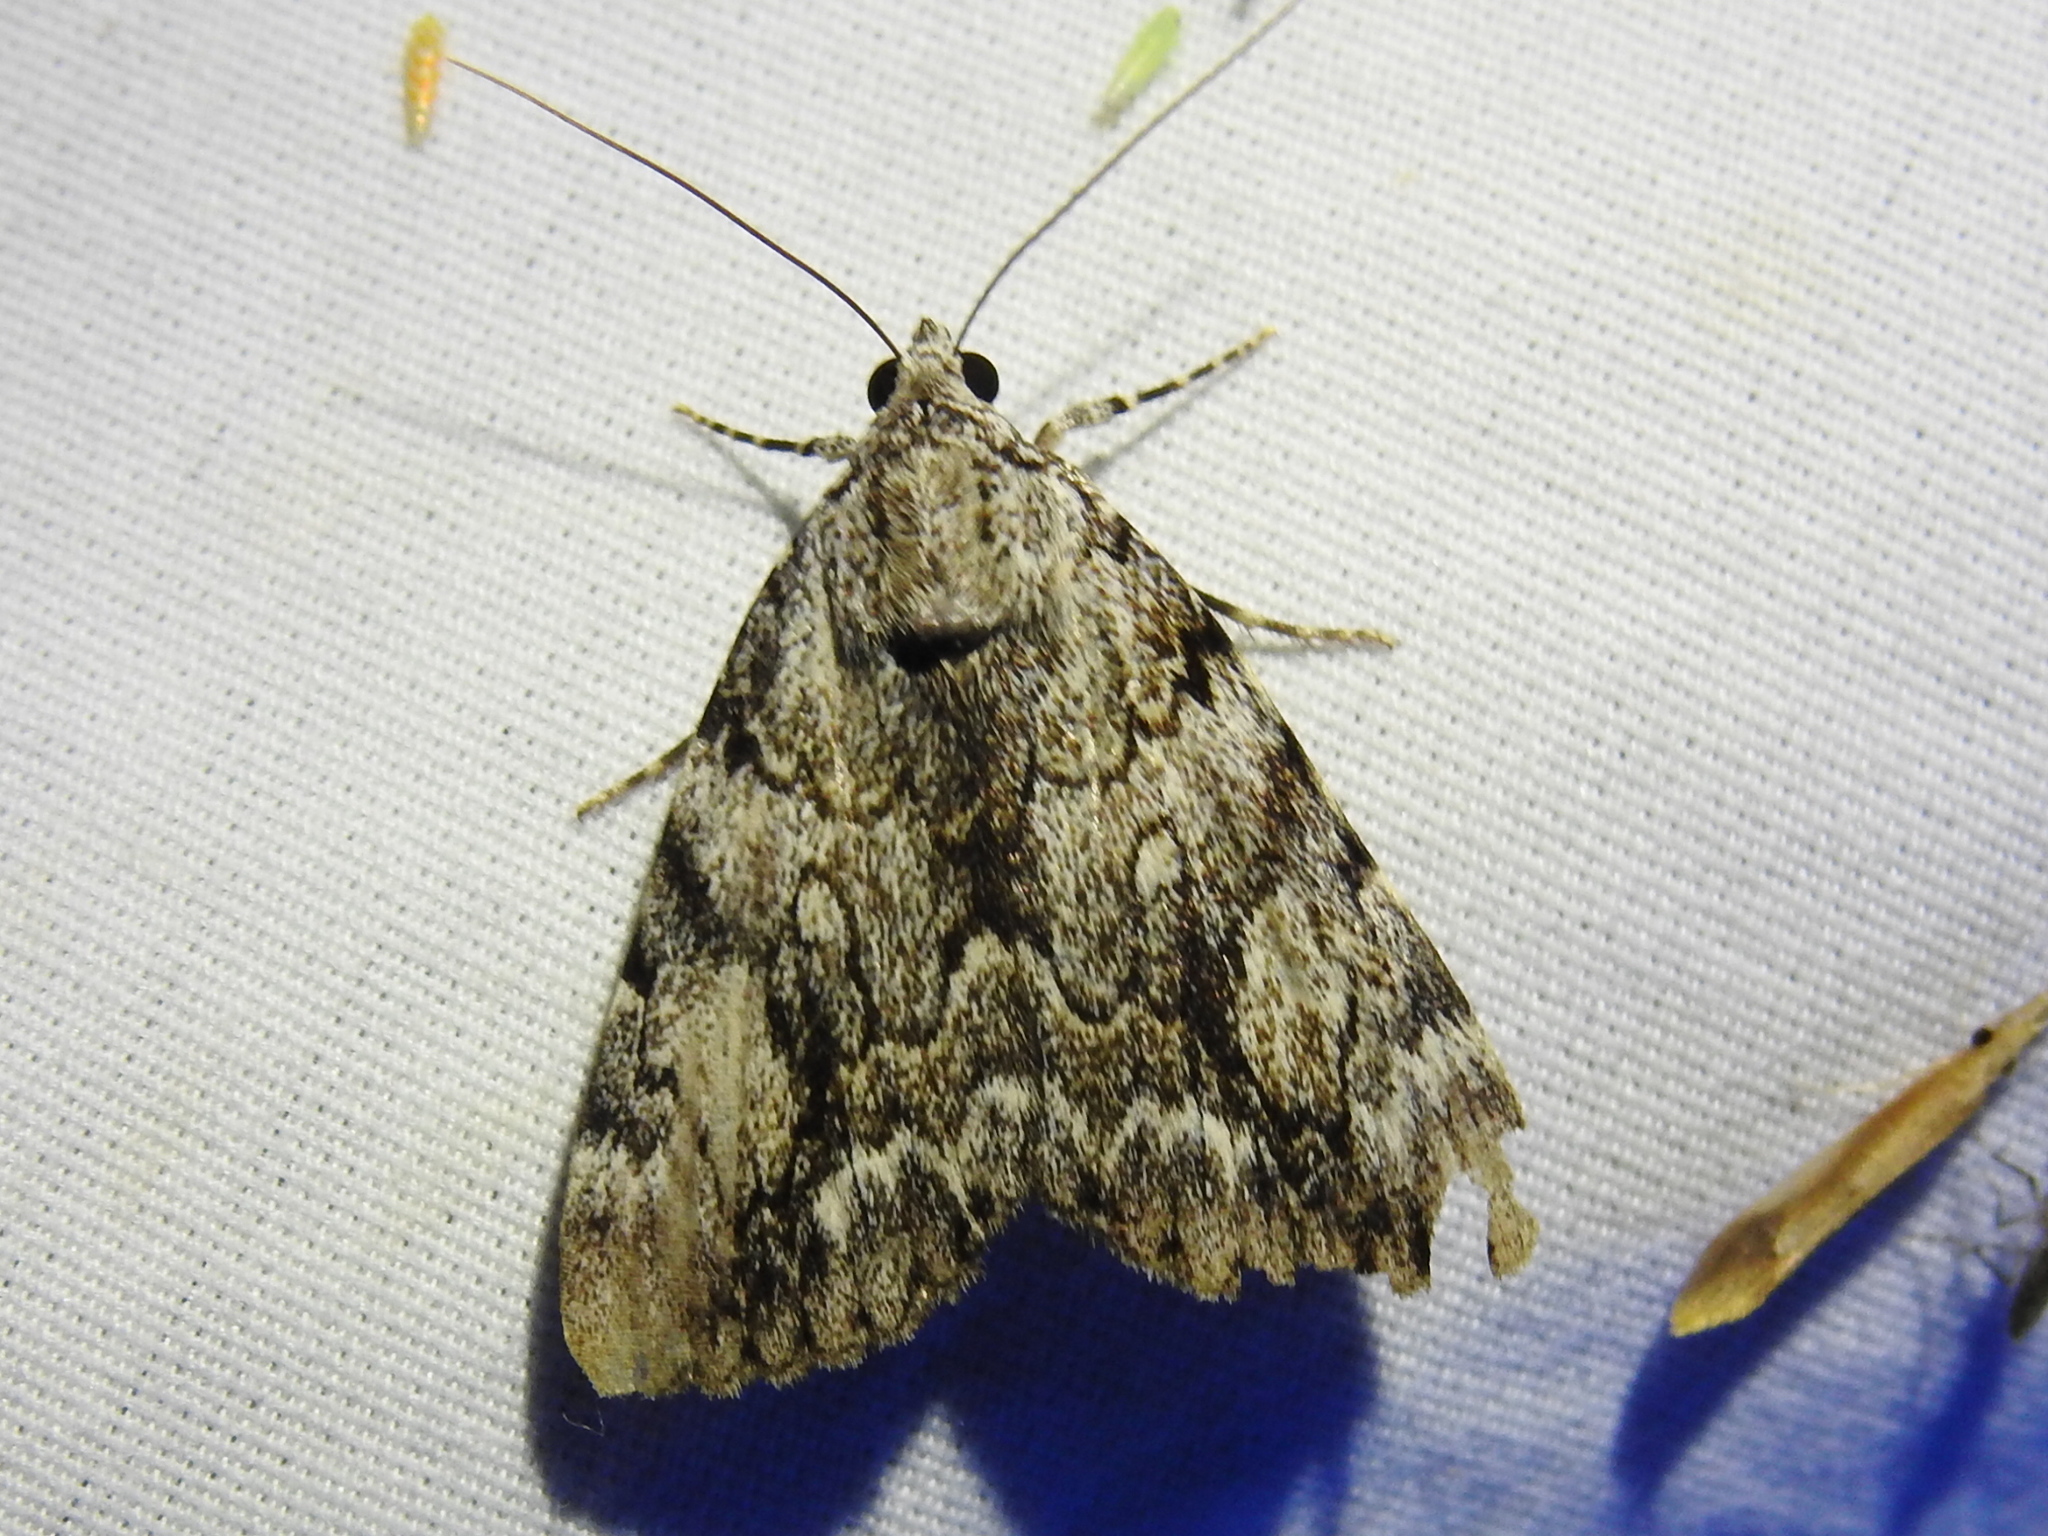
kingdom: Animalia
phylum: Arthropoda
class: Insecta
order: Lepidoptera
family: Erebidae
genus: Catocala
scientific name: Catocala lineella
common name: Little lined underwing
